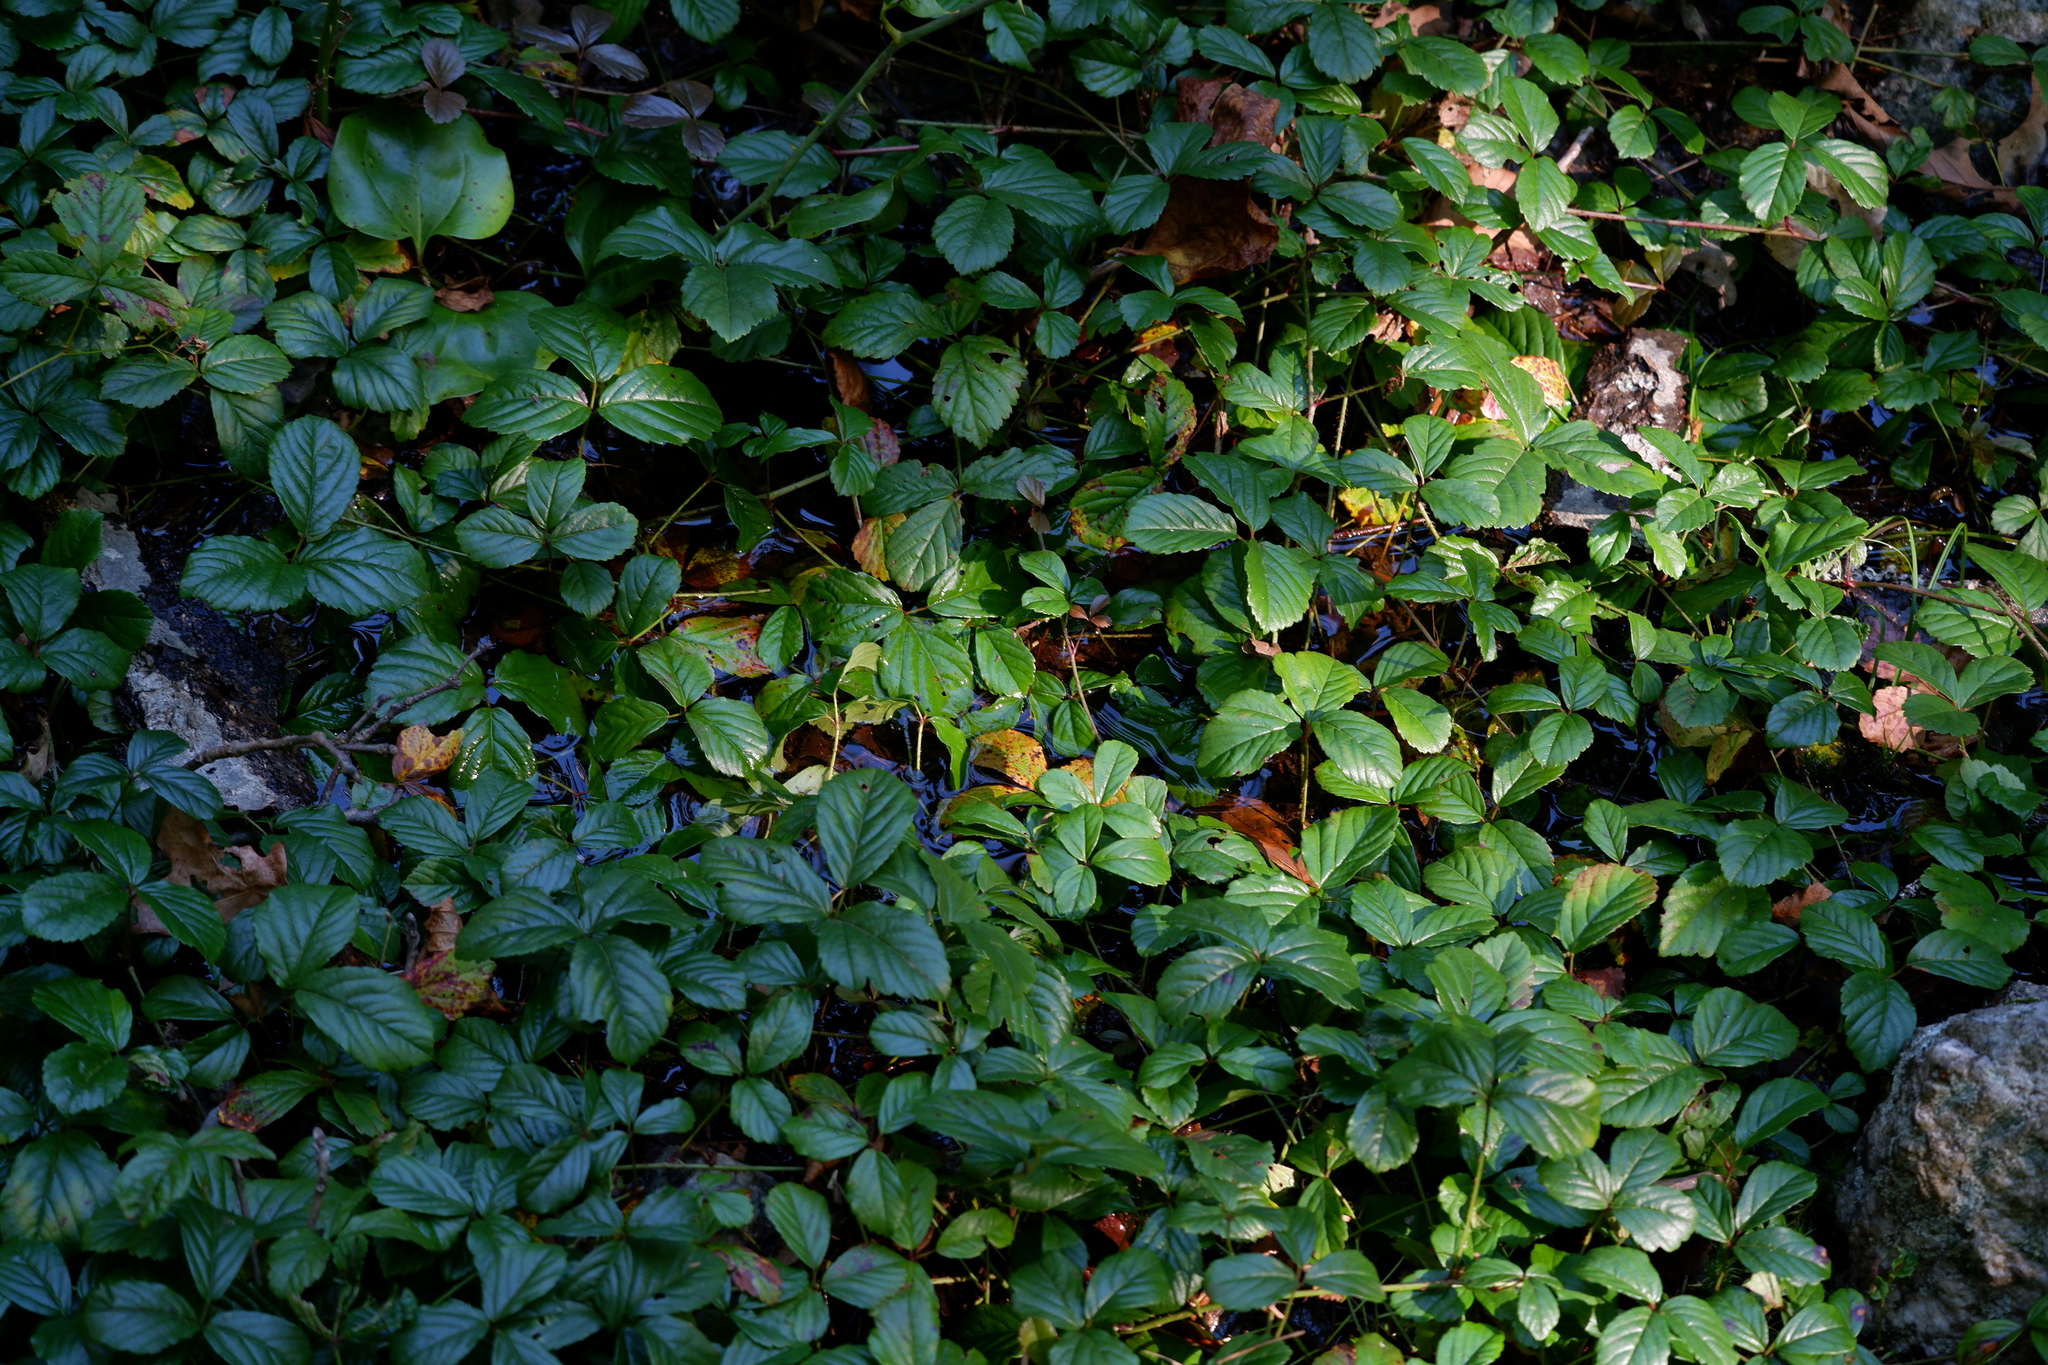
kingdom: Plantae
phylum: Tracheophyta
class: Magnoliopsida
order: Rosales
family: Rosaceae
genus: Rubus
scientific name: Rubus hispidus
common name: Running blackberry
